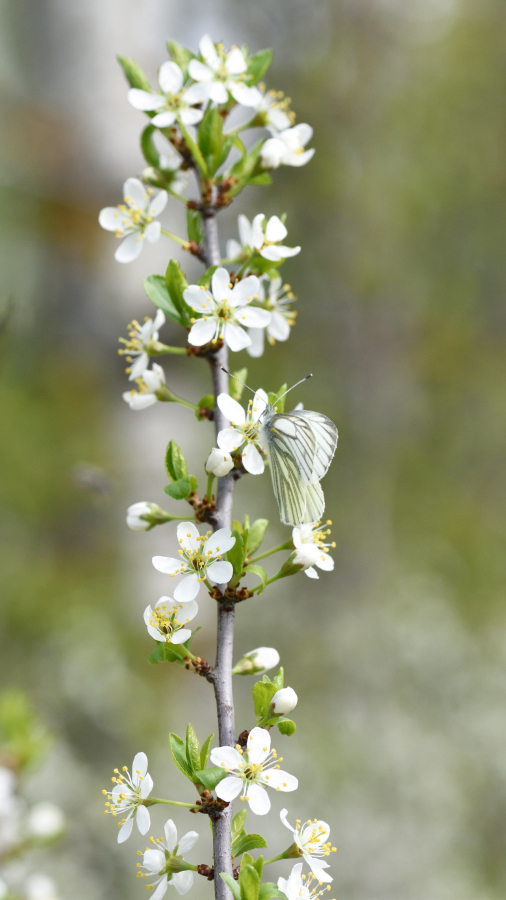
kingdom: Animalia
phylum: Arthropoda
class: Insecta
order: Lepidoptera
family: Pieridae
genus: Pieris
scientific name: Pieris napi
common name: Green-veined white
